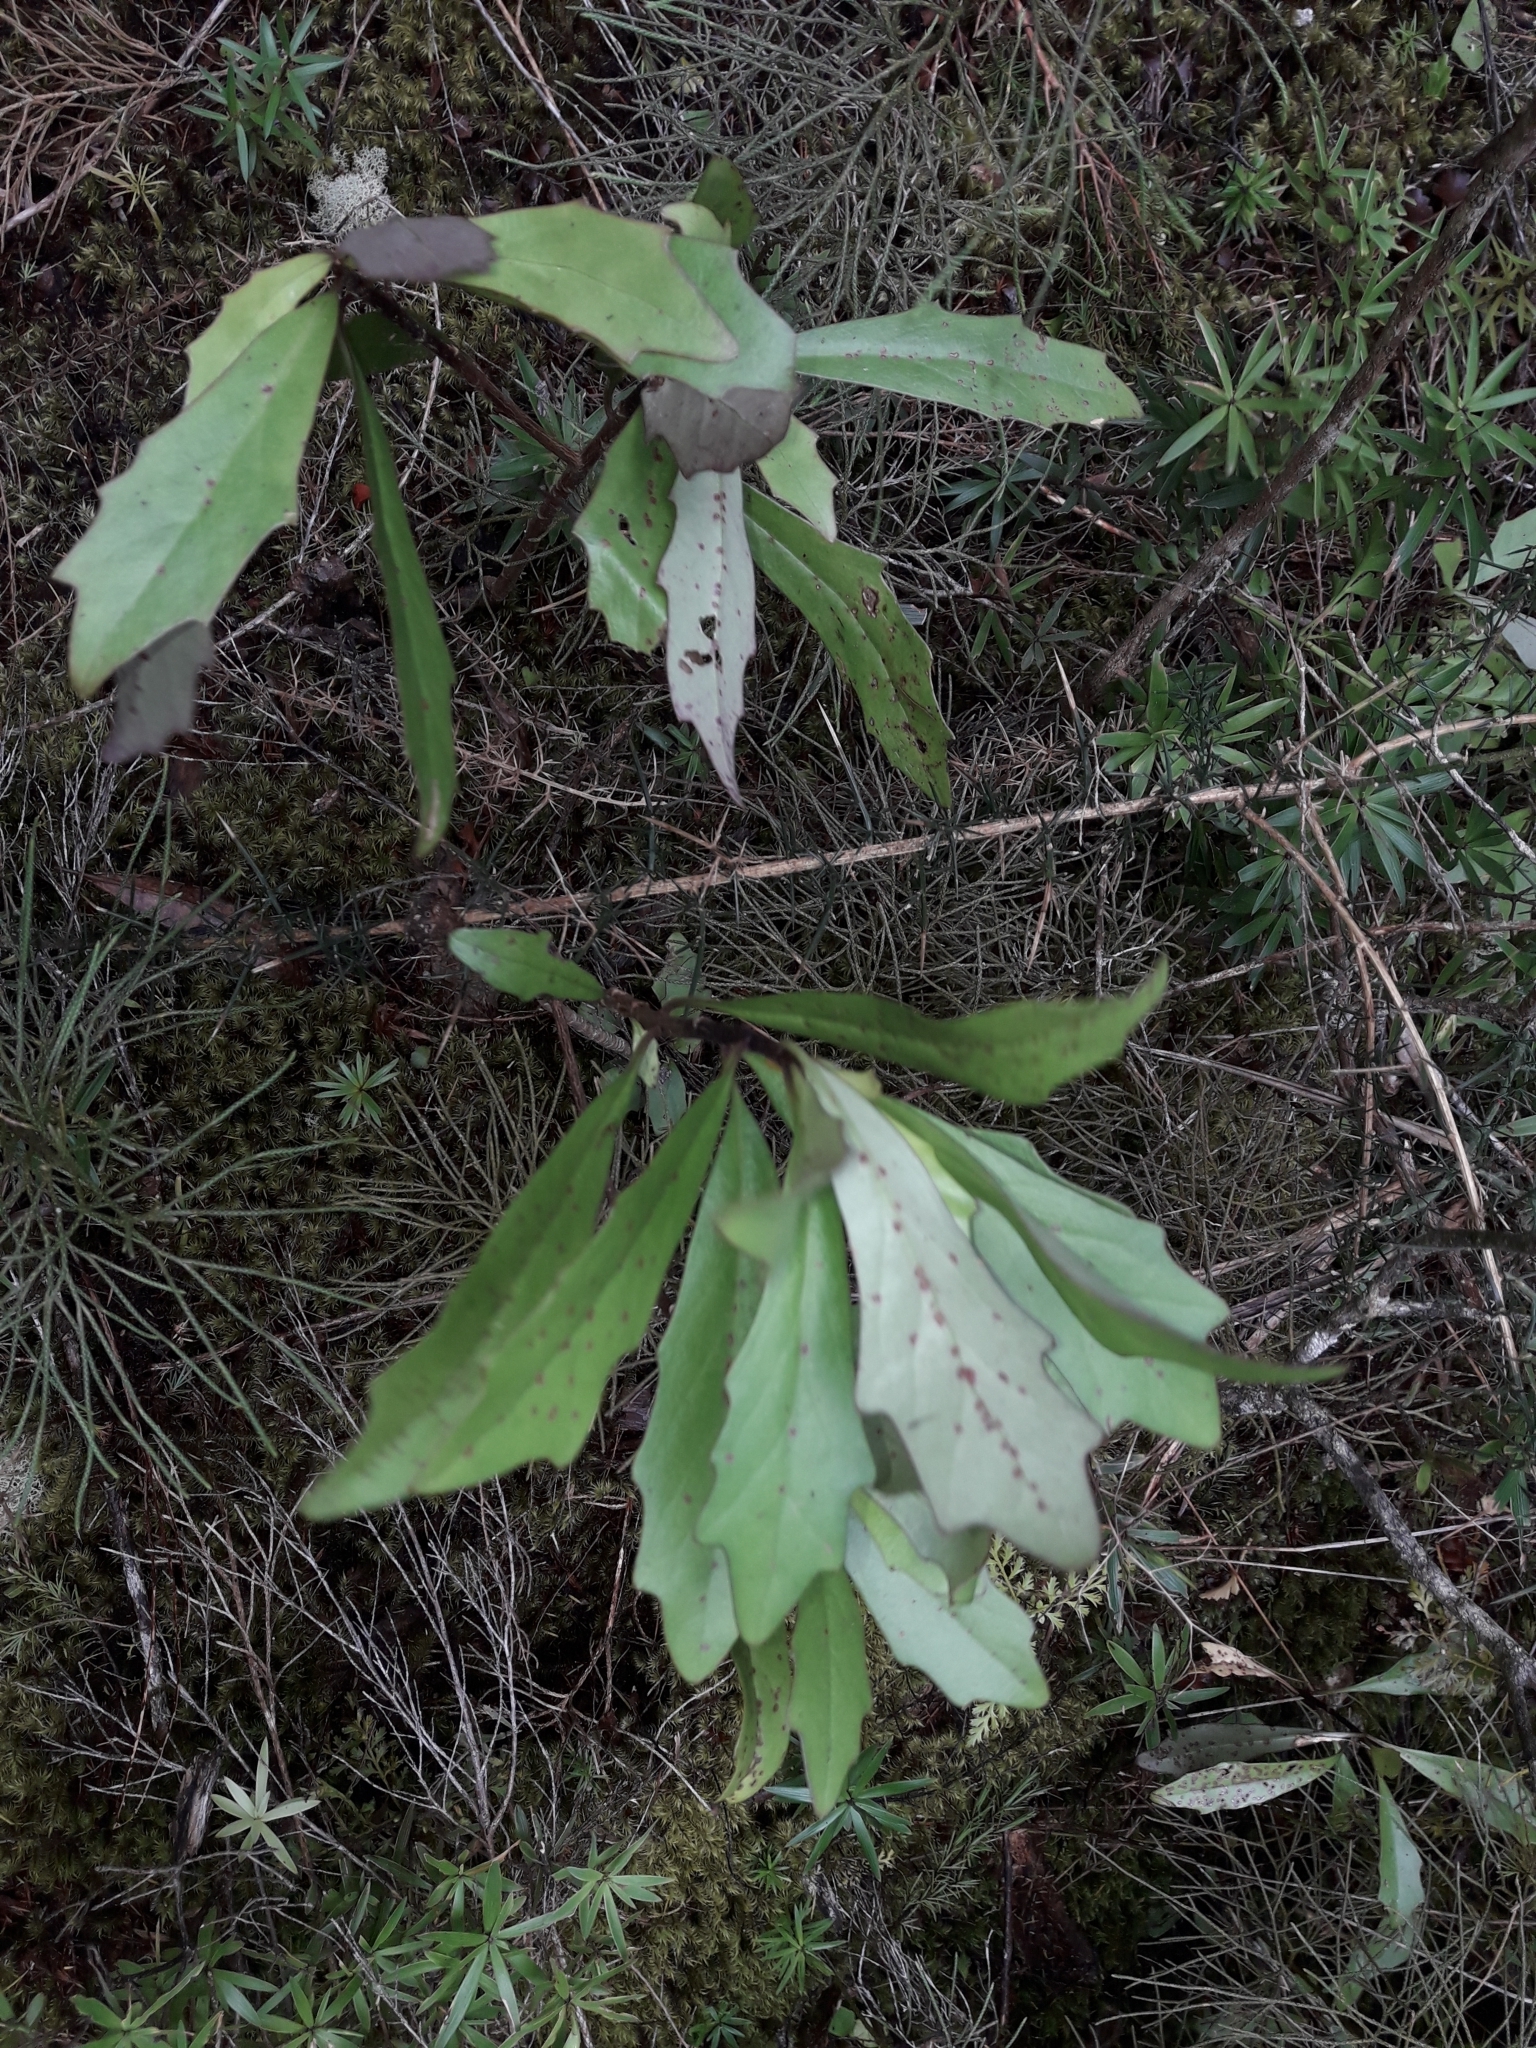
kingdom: Plantae
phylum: Tracheophyta
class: Magnoliopsida
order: Asterales
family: Asteraceae
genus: Brachyglottis
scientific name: Brachyglottis kirkii
